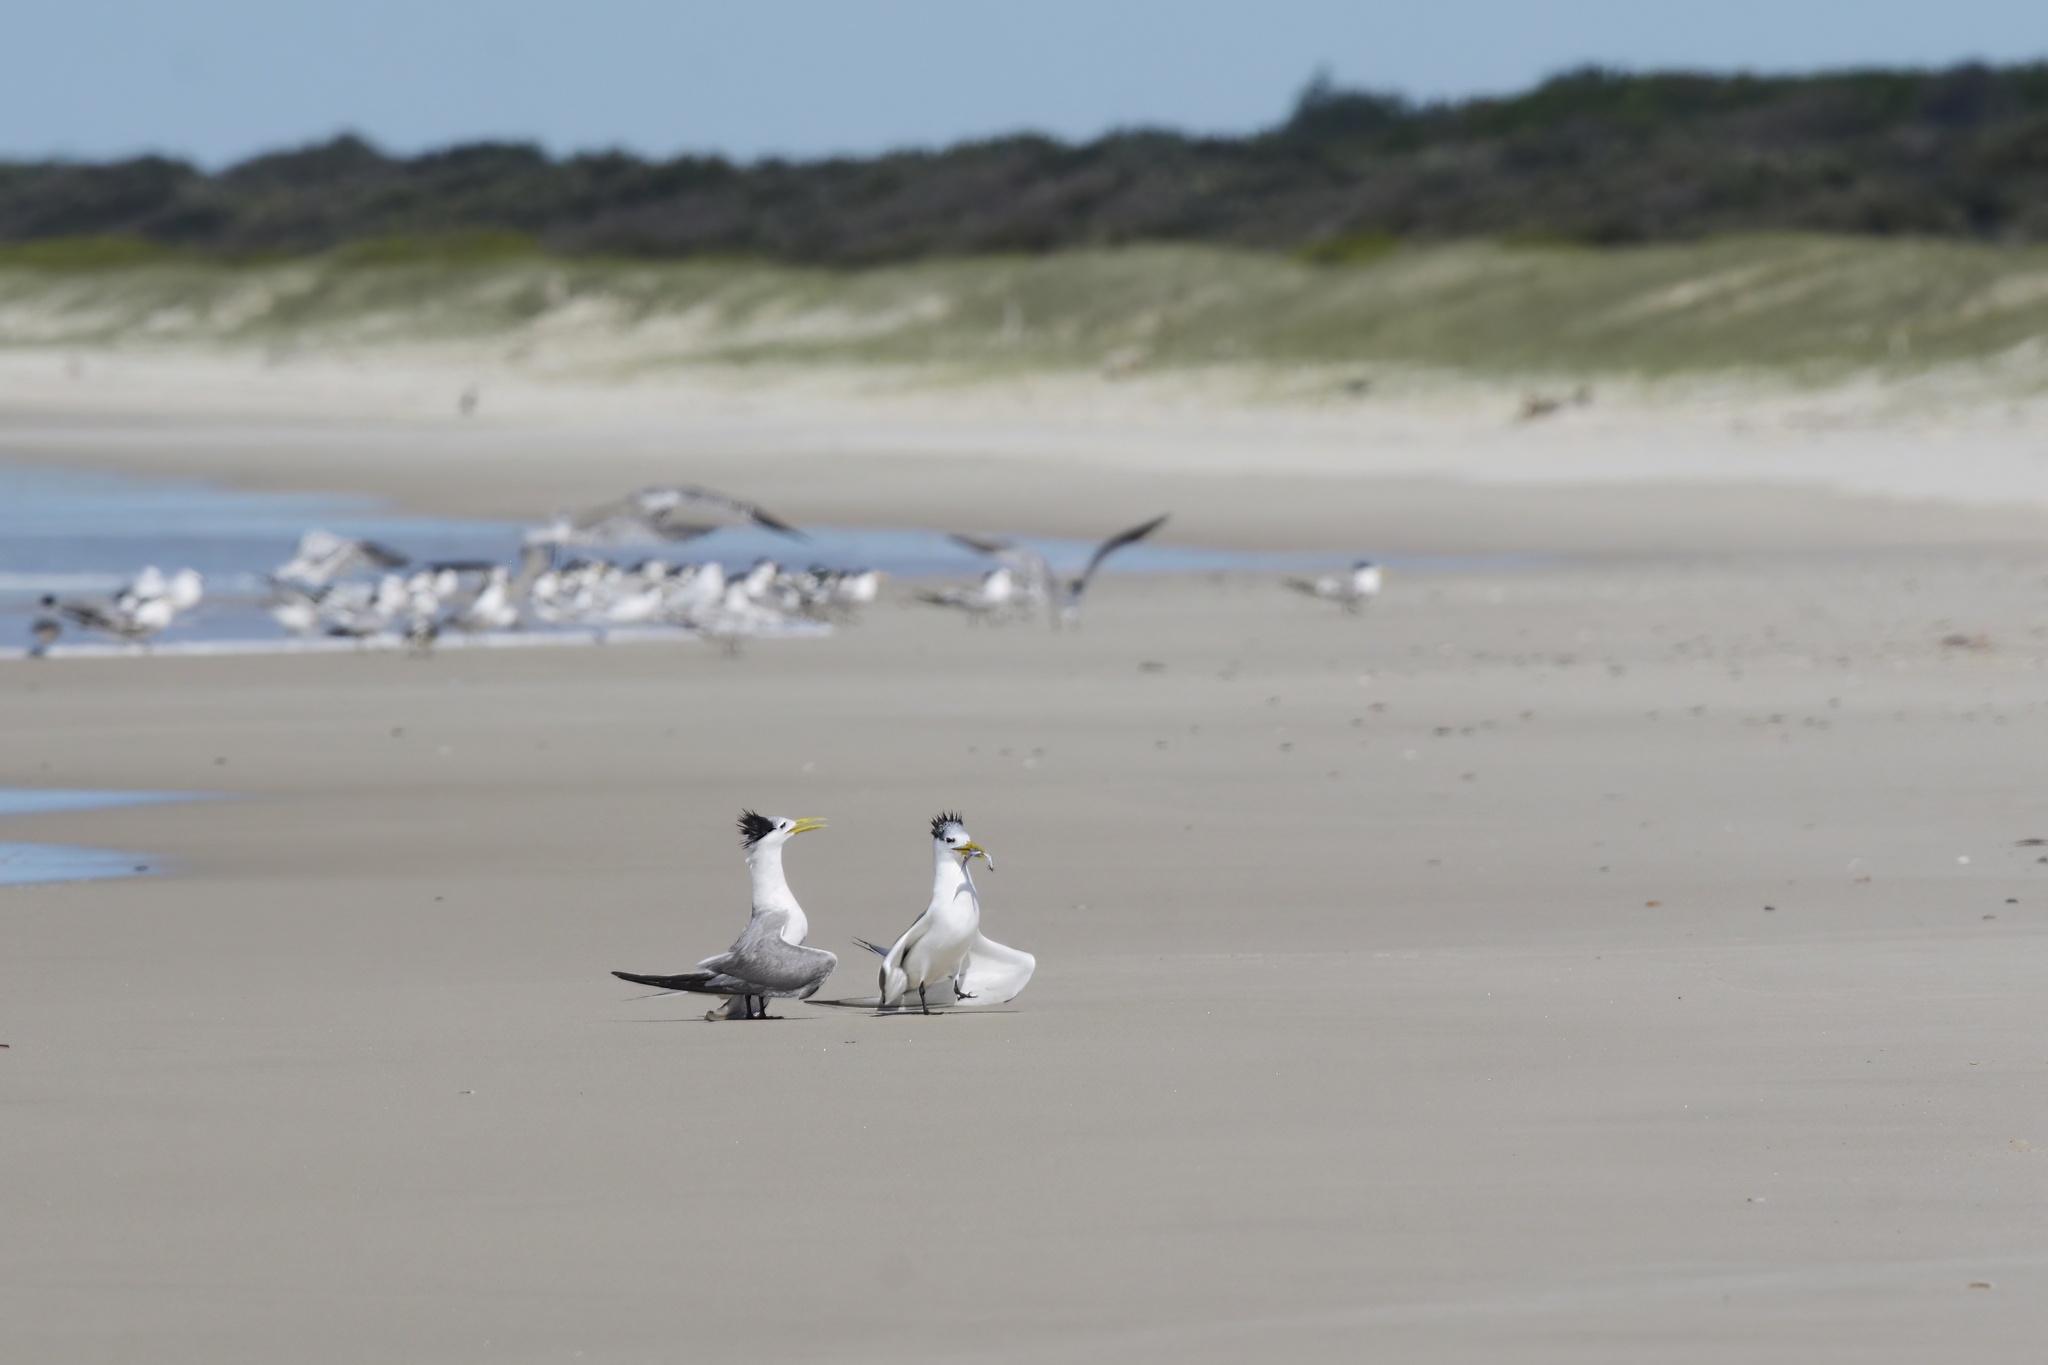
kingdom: Animalia
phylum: Chordata
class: Aves
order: Charadriiformes
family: Laridae
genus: Thalasseus
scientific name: Thalasseus bergii
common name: Greater crested tern
